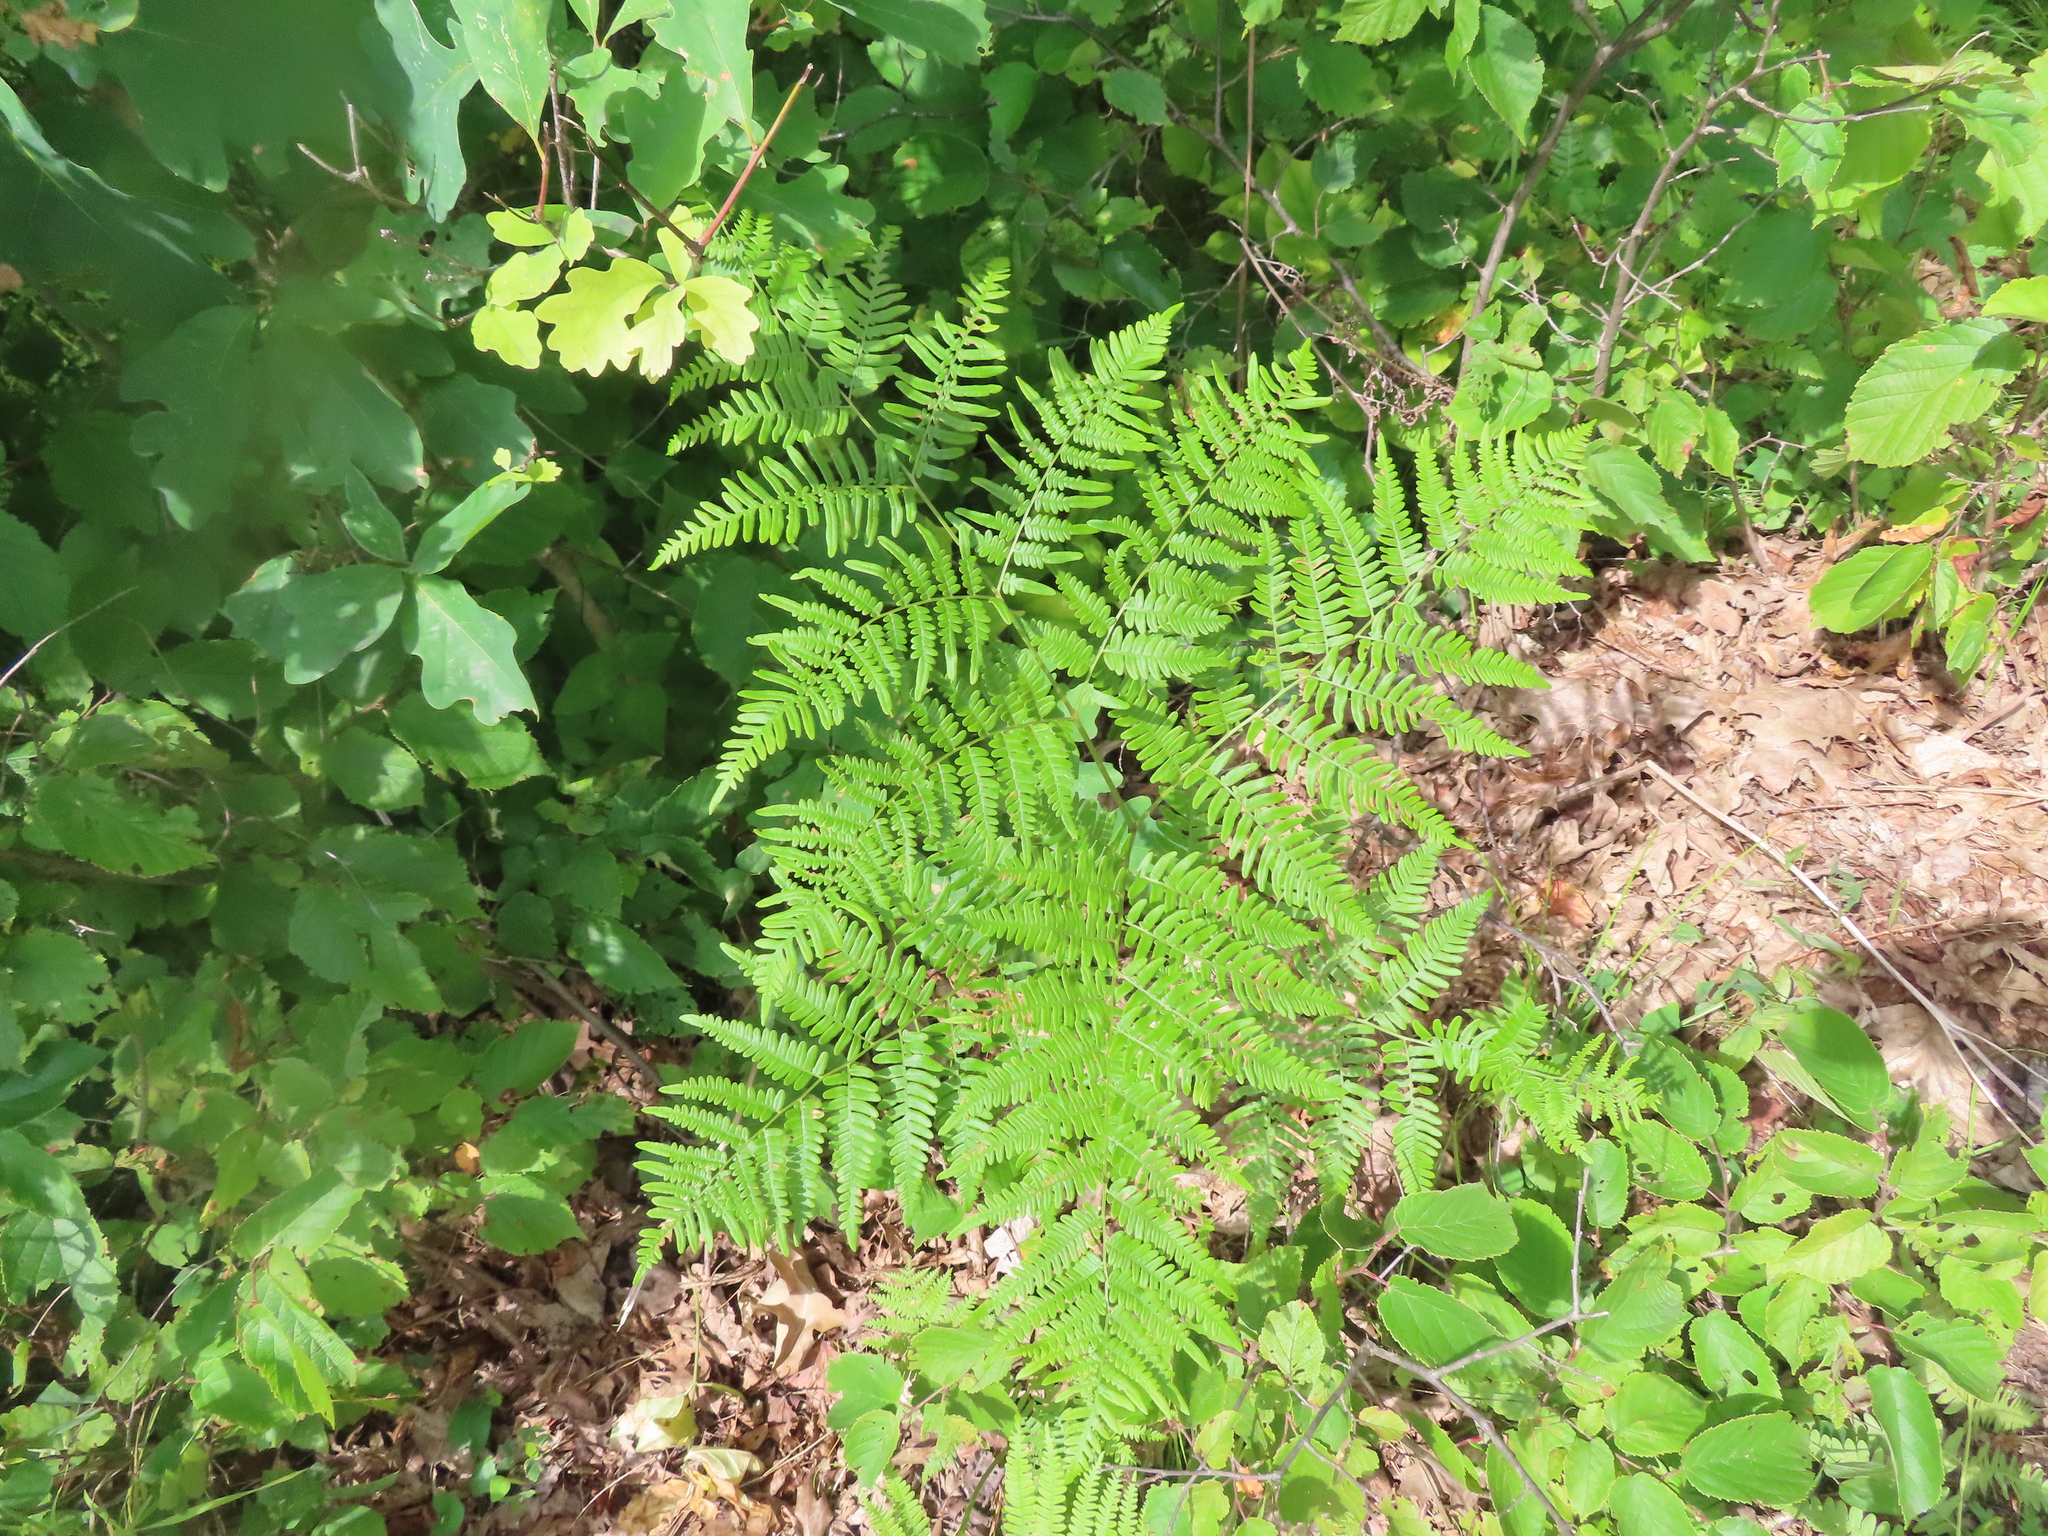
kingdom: Plantae
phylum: Tracheophyta
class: Polypodiopsida
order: Polypodiales
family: Dennstaedtiaceae
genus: Pteridium
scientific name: Pteridium aquilinum
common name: Bracken
